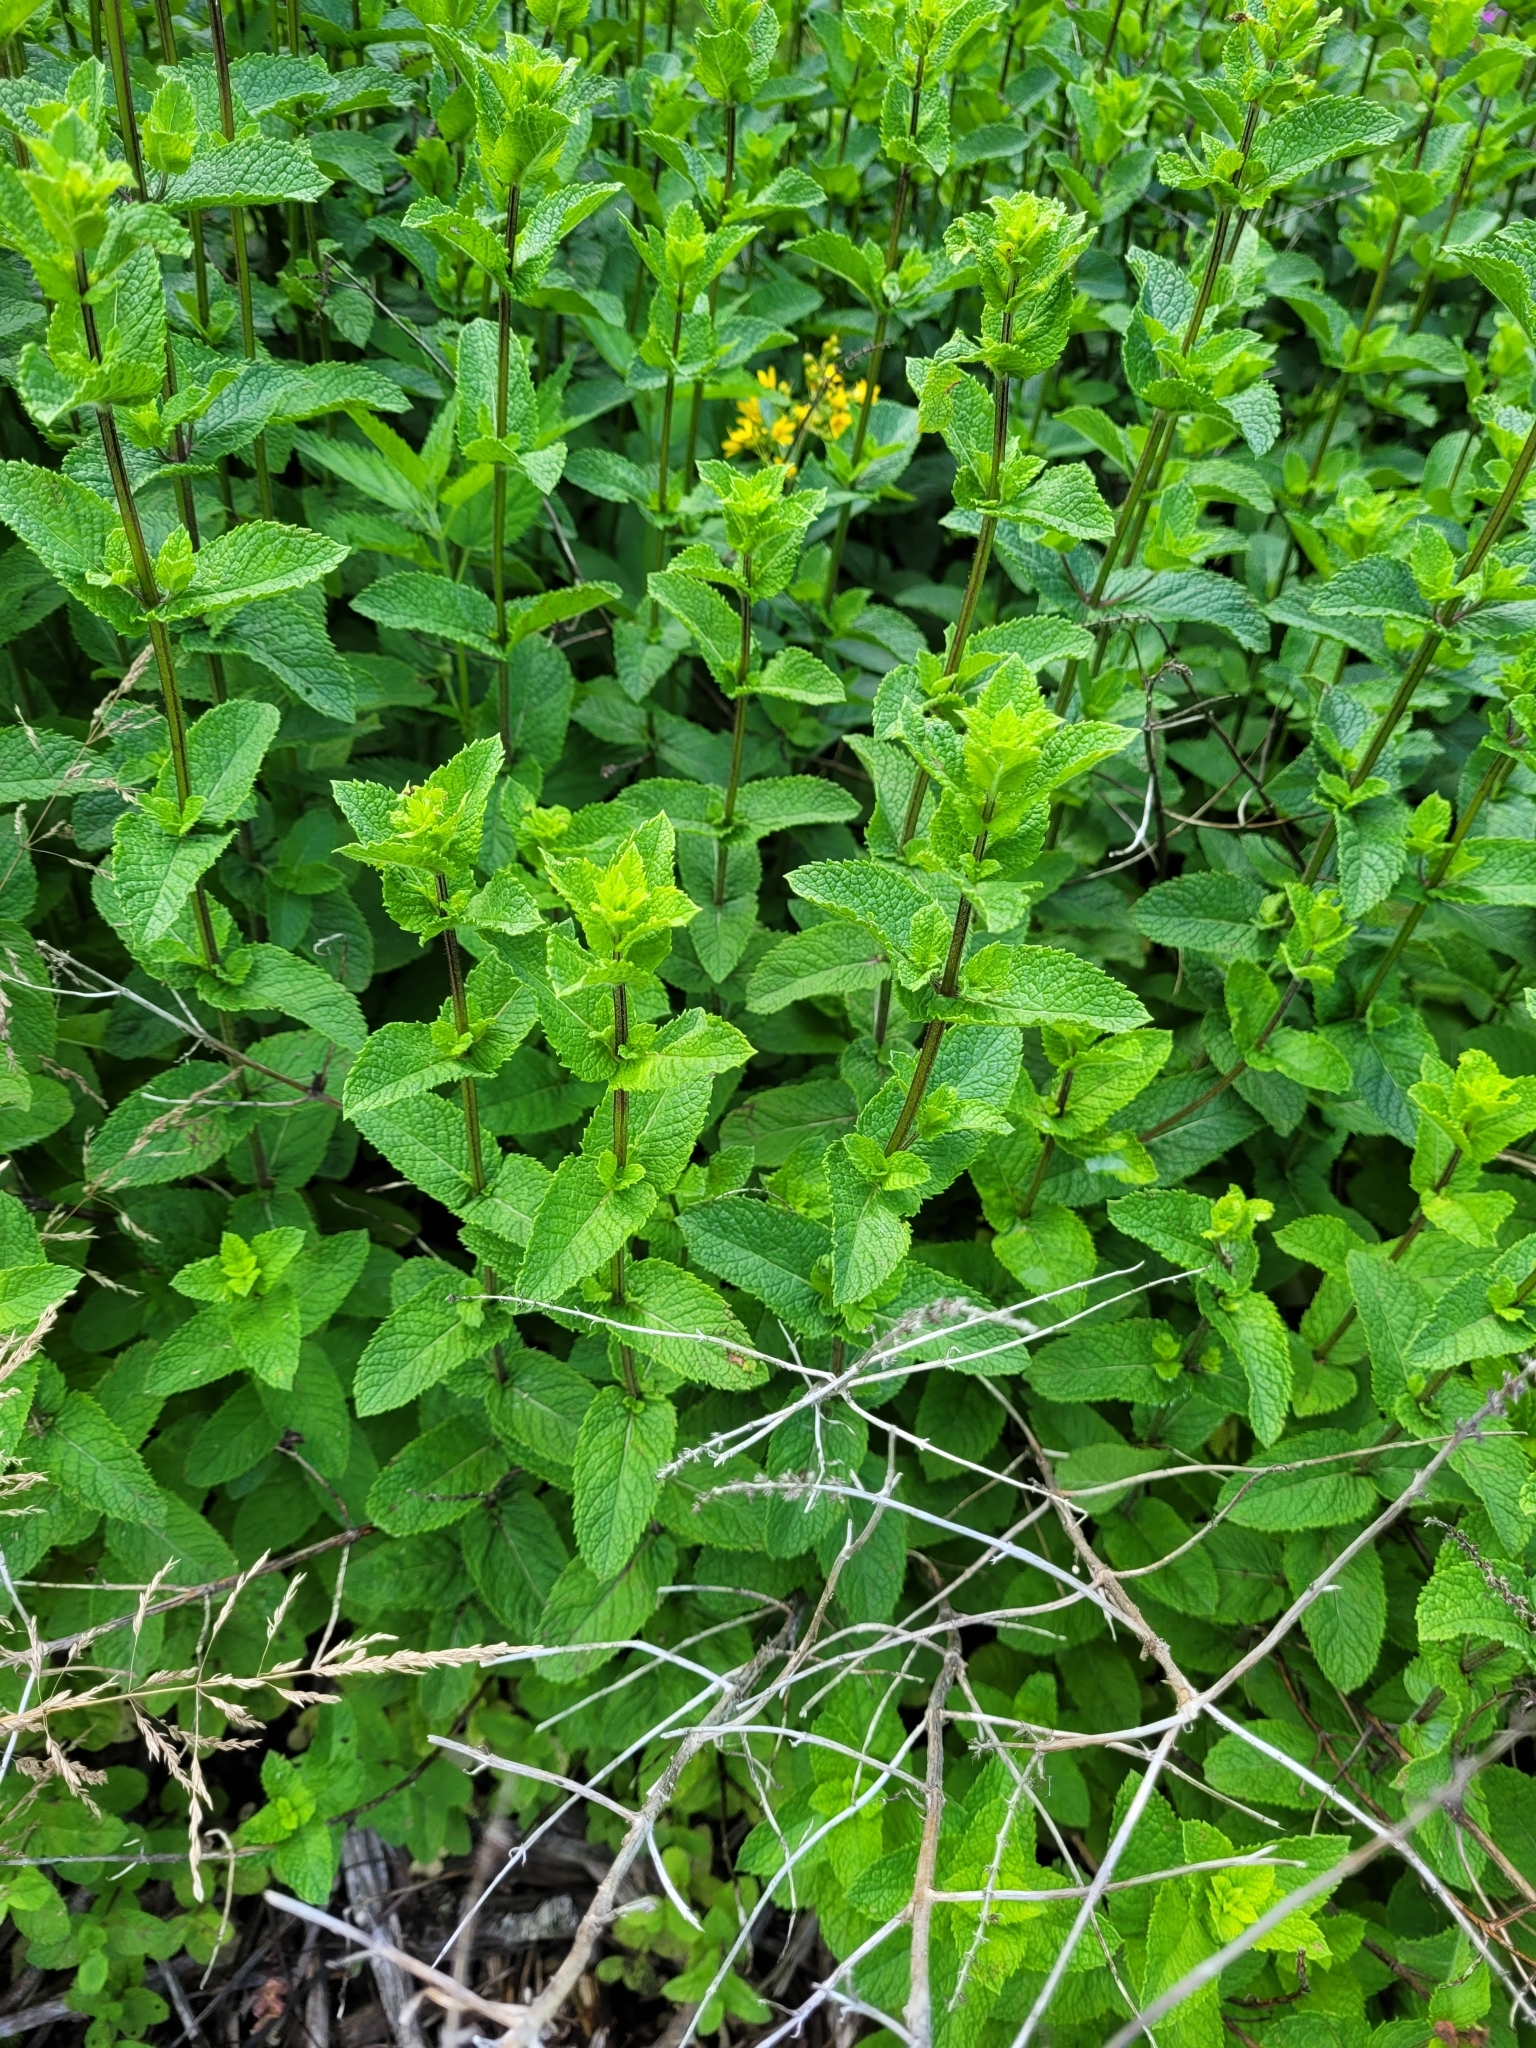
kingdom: Plantae
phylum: Tracheophyta
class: Magnoliopsida
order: Lamiales
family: Lamiaceae
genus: Mentha
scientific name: Mentha spicata
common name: Spearmint
